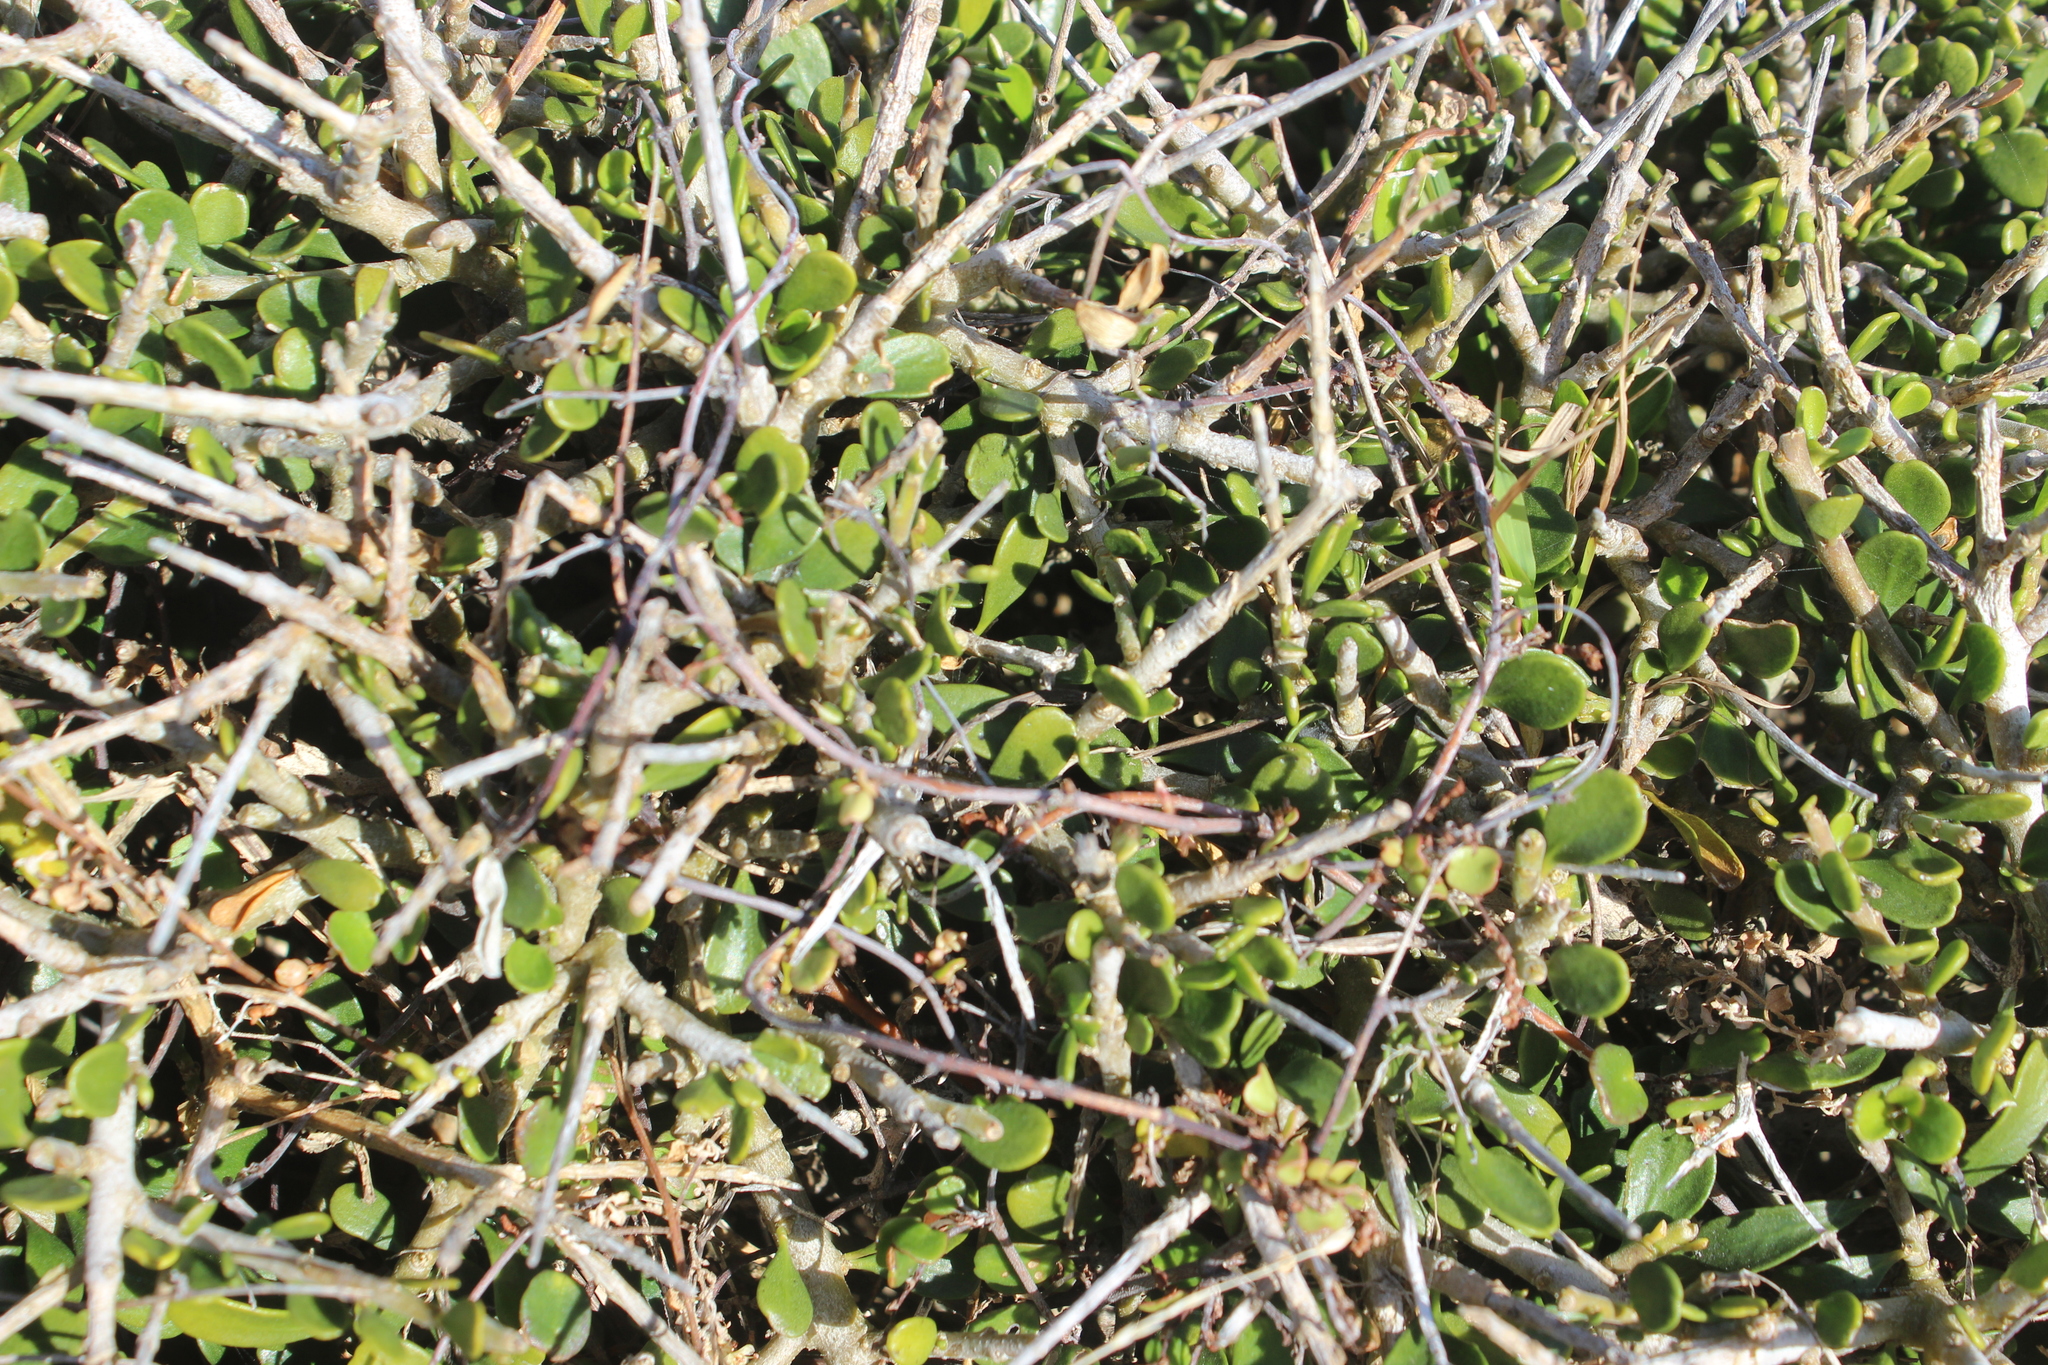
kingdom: Plantae
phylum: Tracheophyta
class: Magnoliopsida
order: Malpighiales
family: Violaceae
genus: Melicytus
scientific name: Melicytus crassifolius
